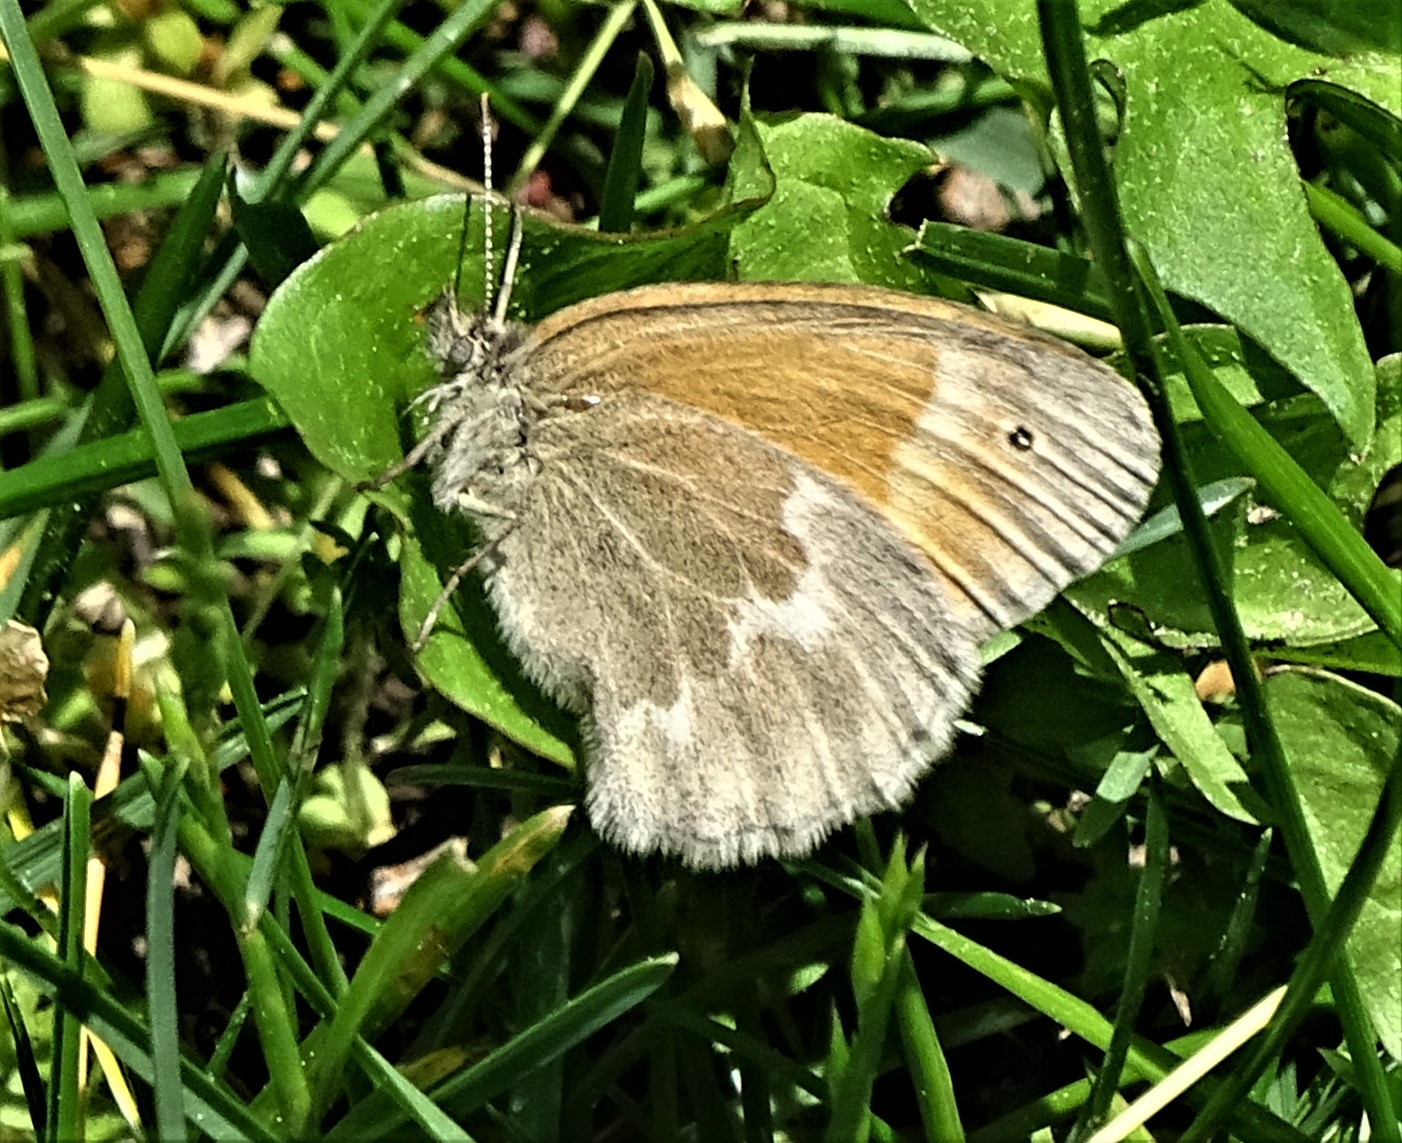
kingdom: Animalia
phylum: Arthropoda
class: Insecta
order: Lepidoptera
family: Nymphalidae
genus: Coenonympha
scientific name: Coenonympha california
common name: Common ringlet
